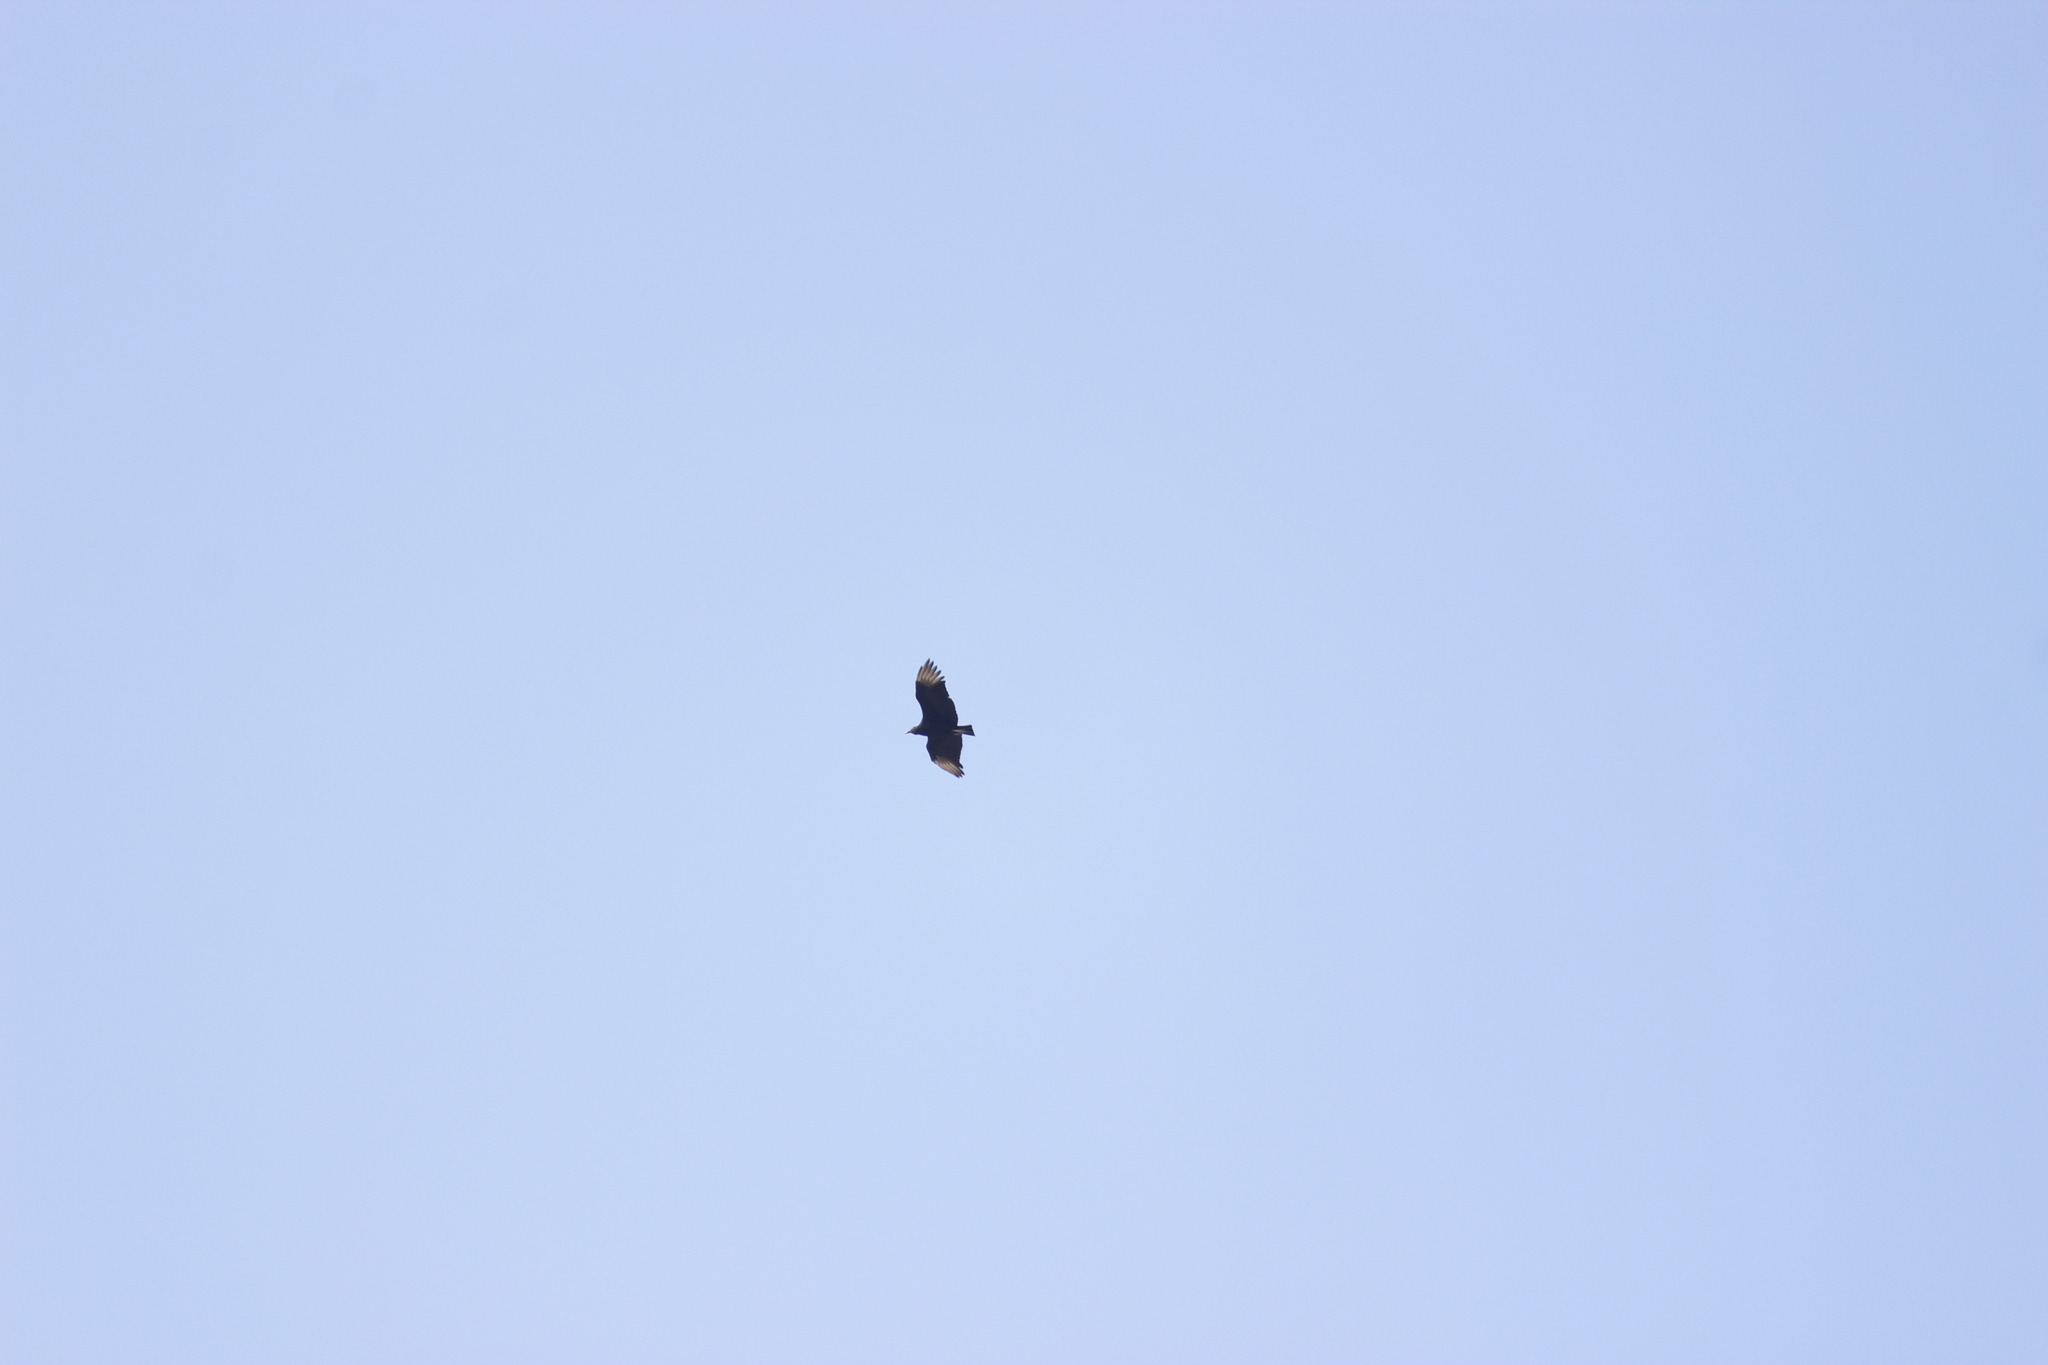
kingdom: Animalia
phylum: Chordata
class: Aves
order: Accipitriformes
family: Cathartidae
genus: Coragyps
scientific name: Coragyps atratus
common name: Black vulture
